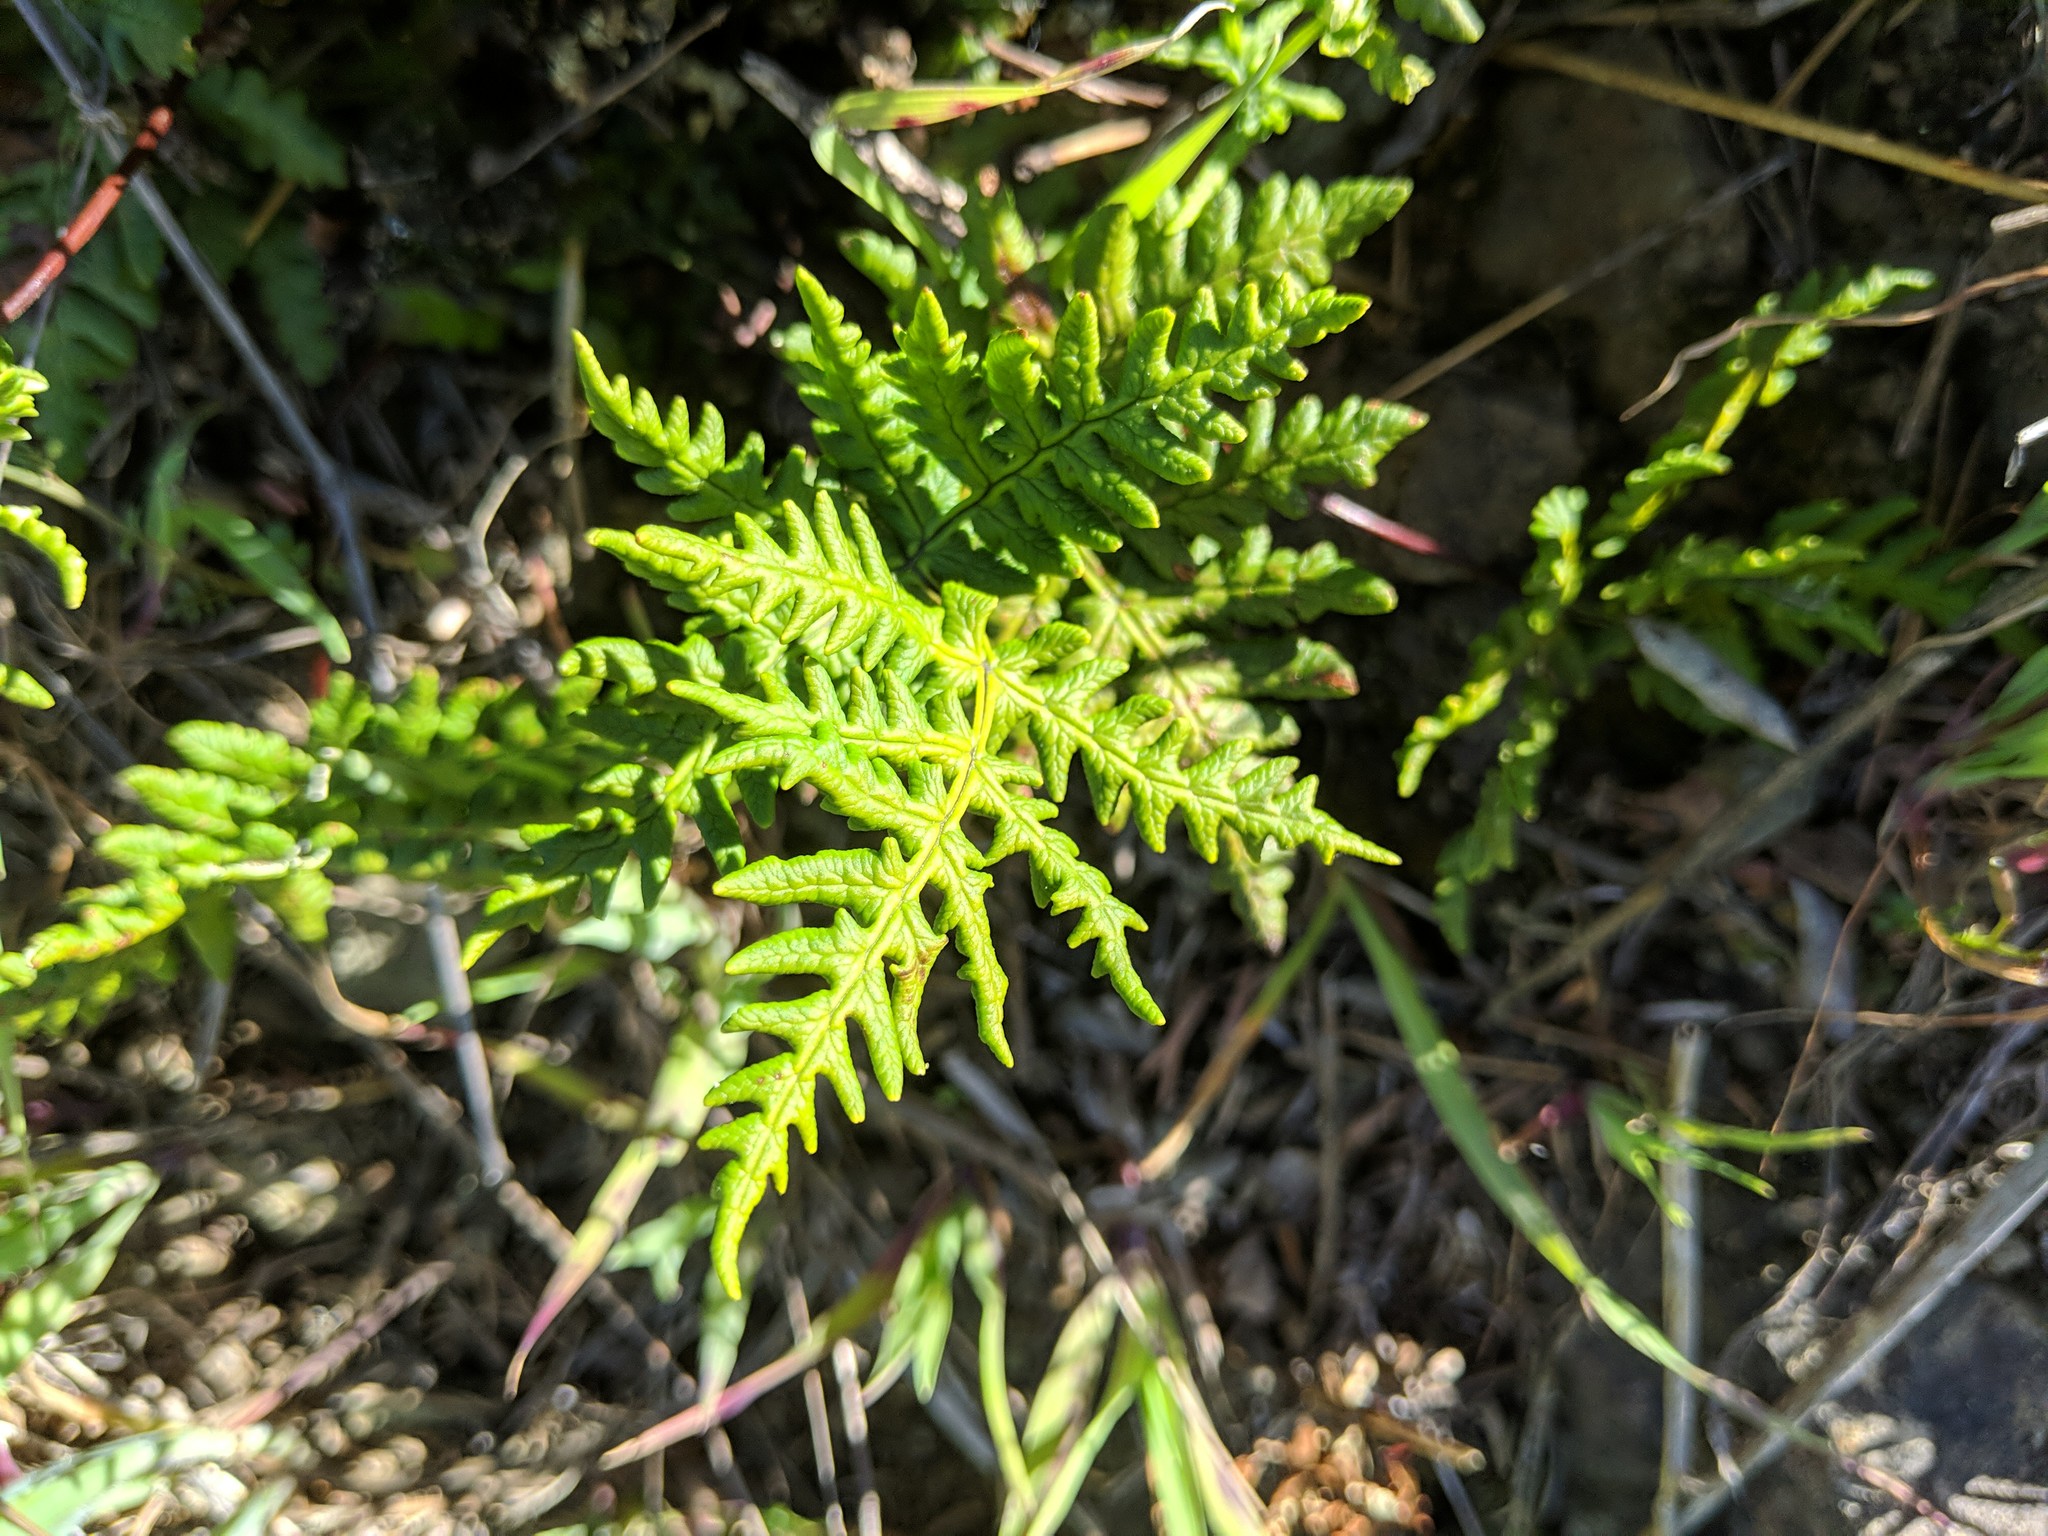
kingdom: Plantae
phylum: Tracheophyta
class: Polypodiopsida
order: Polypodiales
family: Pteridaceae
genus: Pentagramma
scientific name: Pentagramma triangularis
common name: Gold fern
